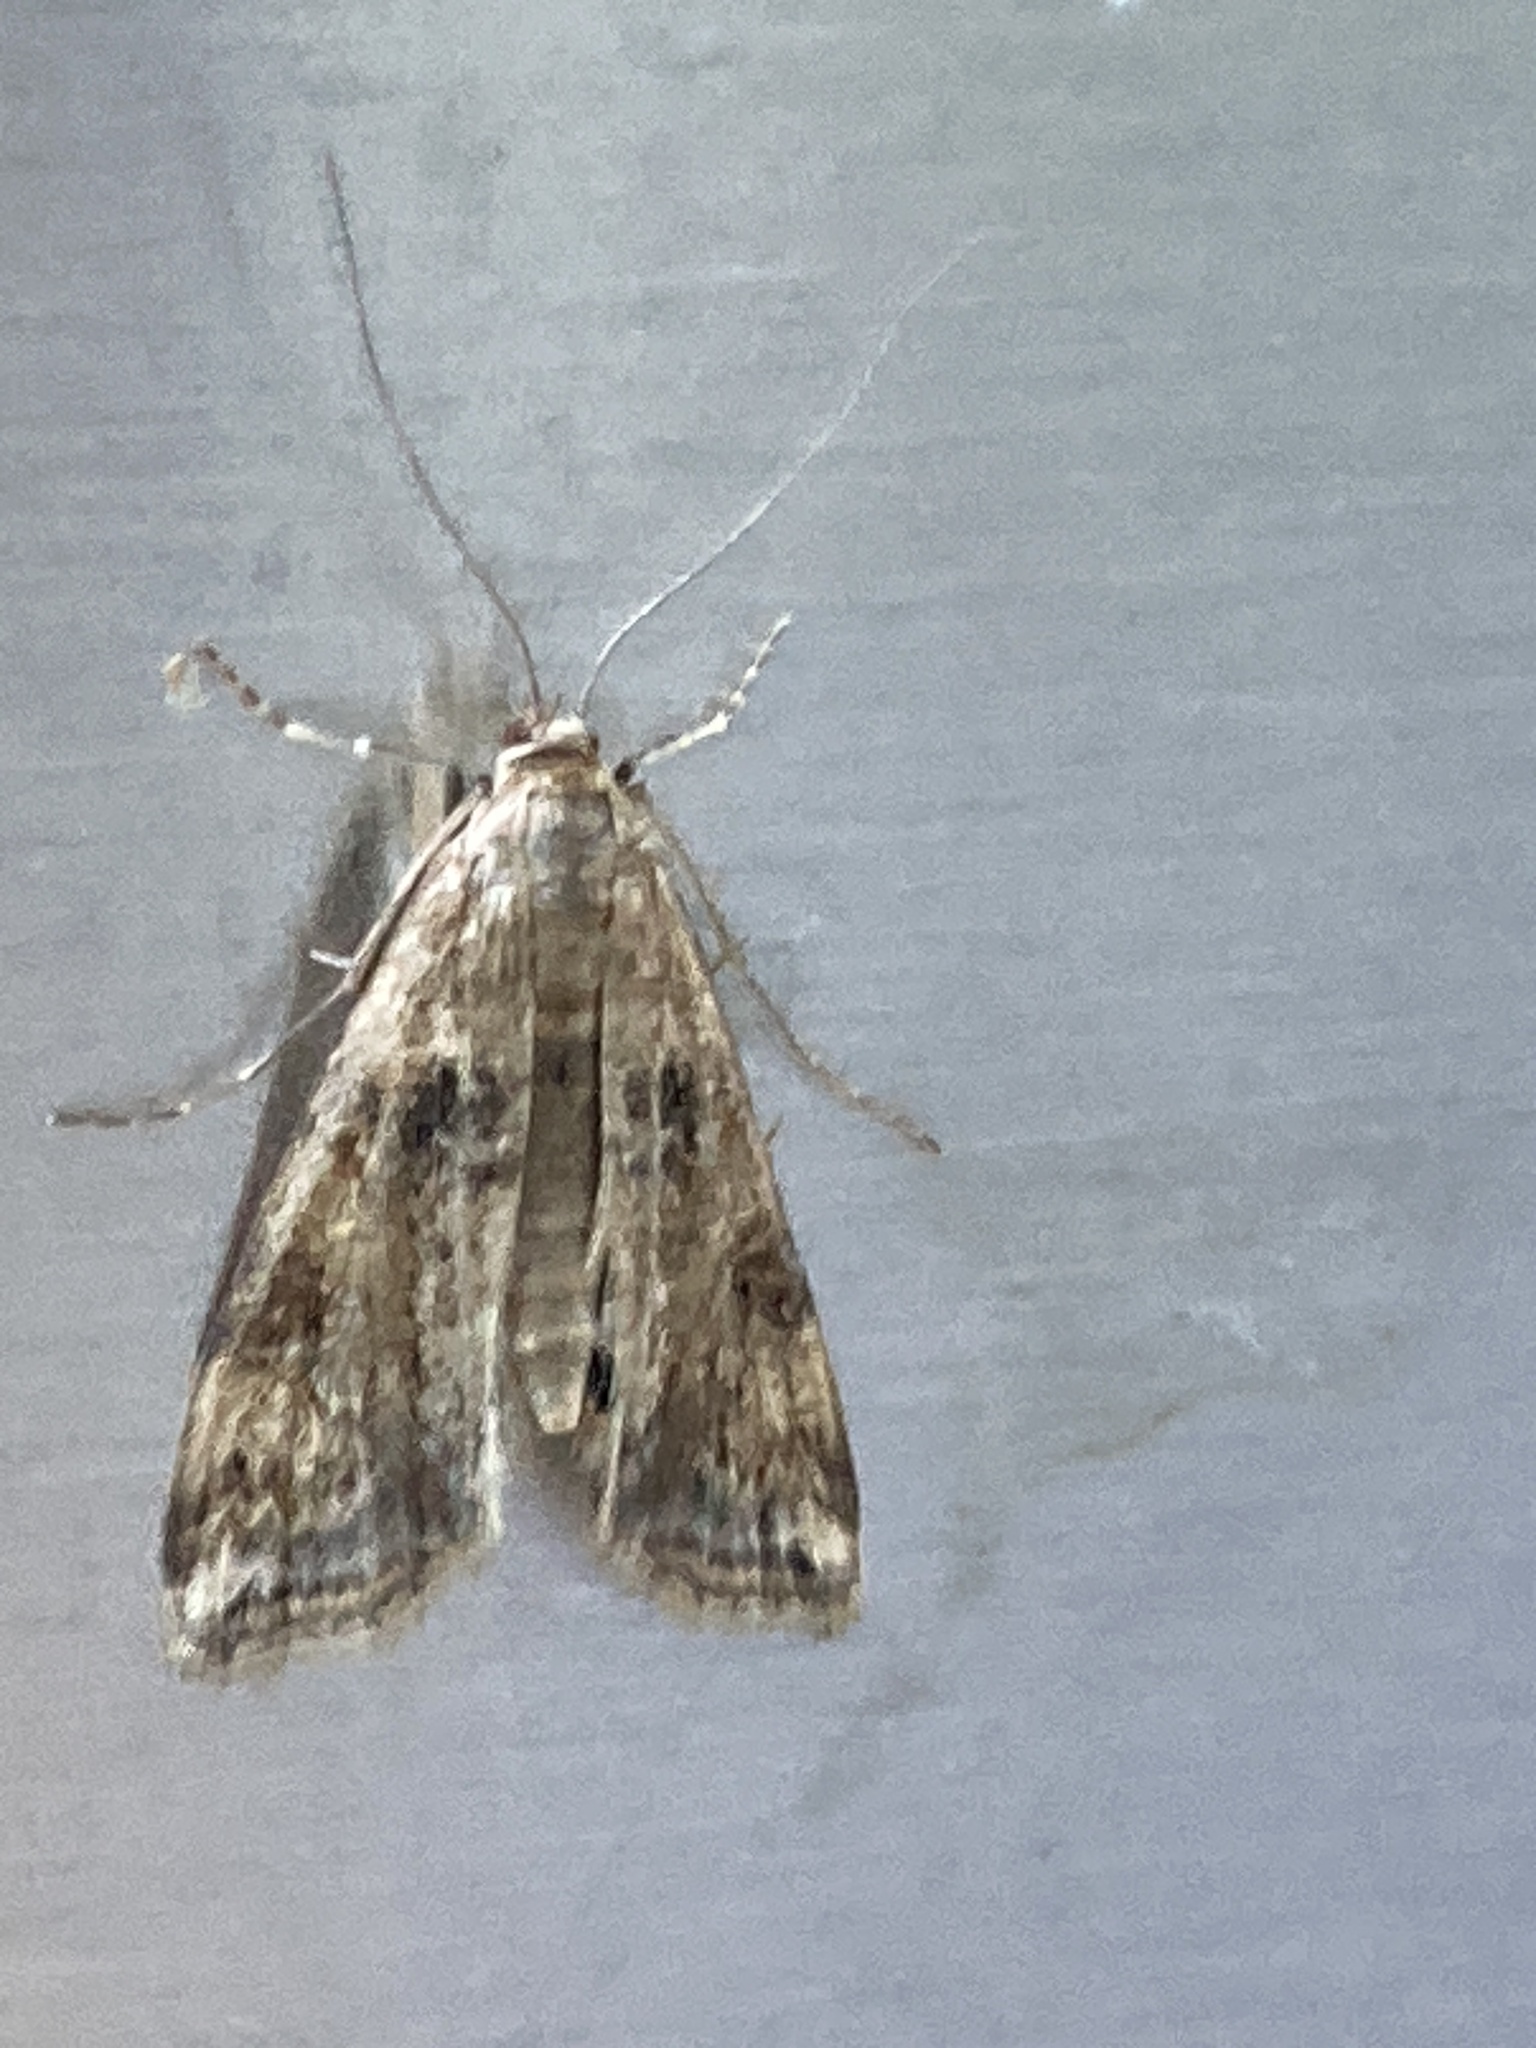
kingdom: Animalia
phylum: Arthropoda
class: Insecta
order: Lepidoptera
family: Crambidae
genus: Cataclysta
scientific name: Cataclysta lemnata
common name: Small china-mark
